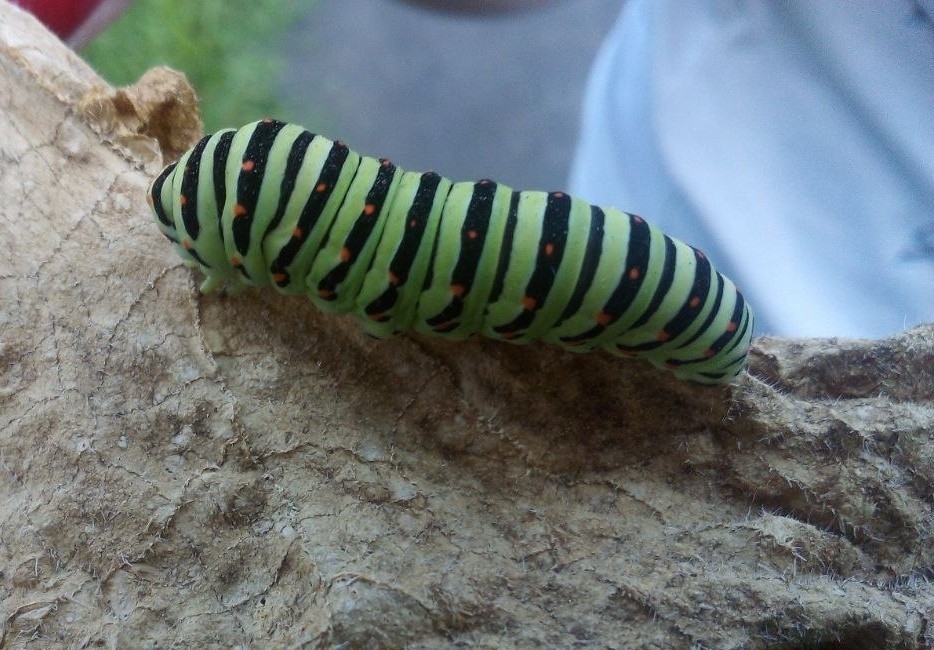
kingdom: Animalia
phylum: Arthropoda
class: Insecta
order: Lepidoptera
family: Papilionidae
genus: Papilio
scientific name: Papilio machaon
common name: Swallowtail
